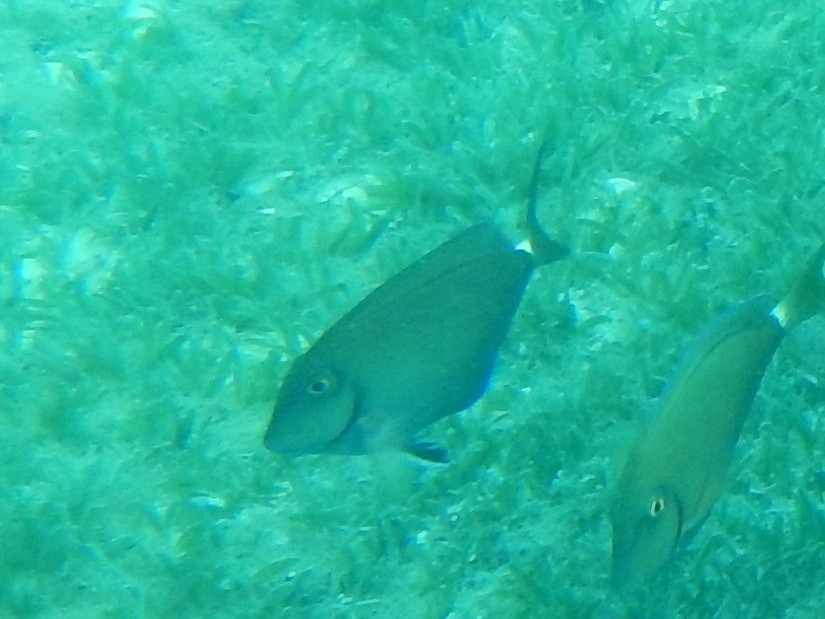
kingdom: Animalia
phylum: Chordata
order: Perciformes
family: Acanthuridae
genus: Acanthurus
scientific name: Acanthurus bahianus
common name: Ocean surgeon
